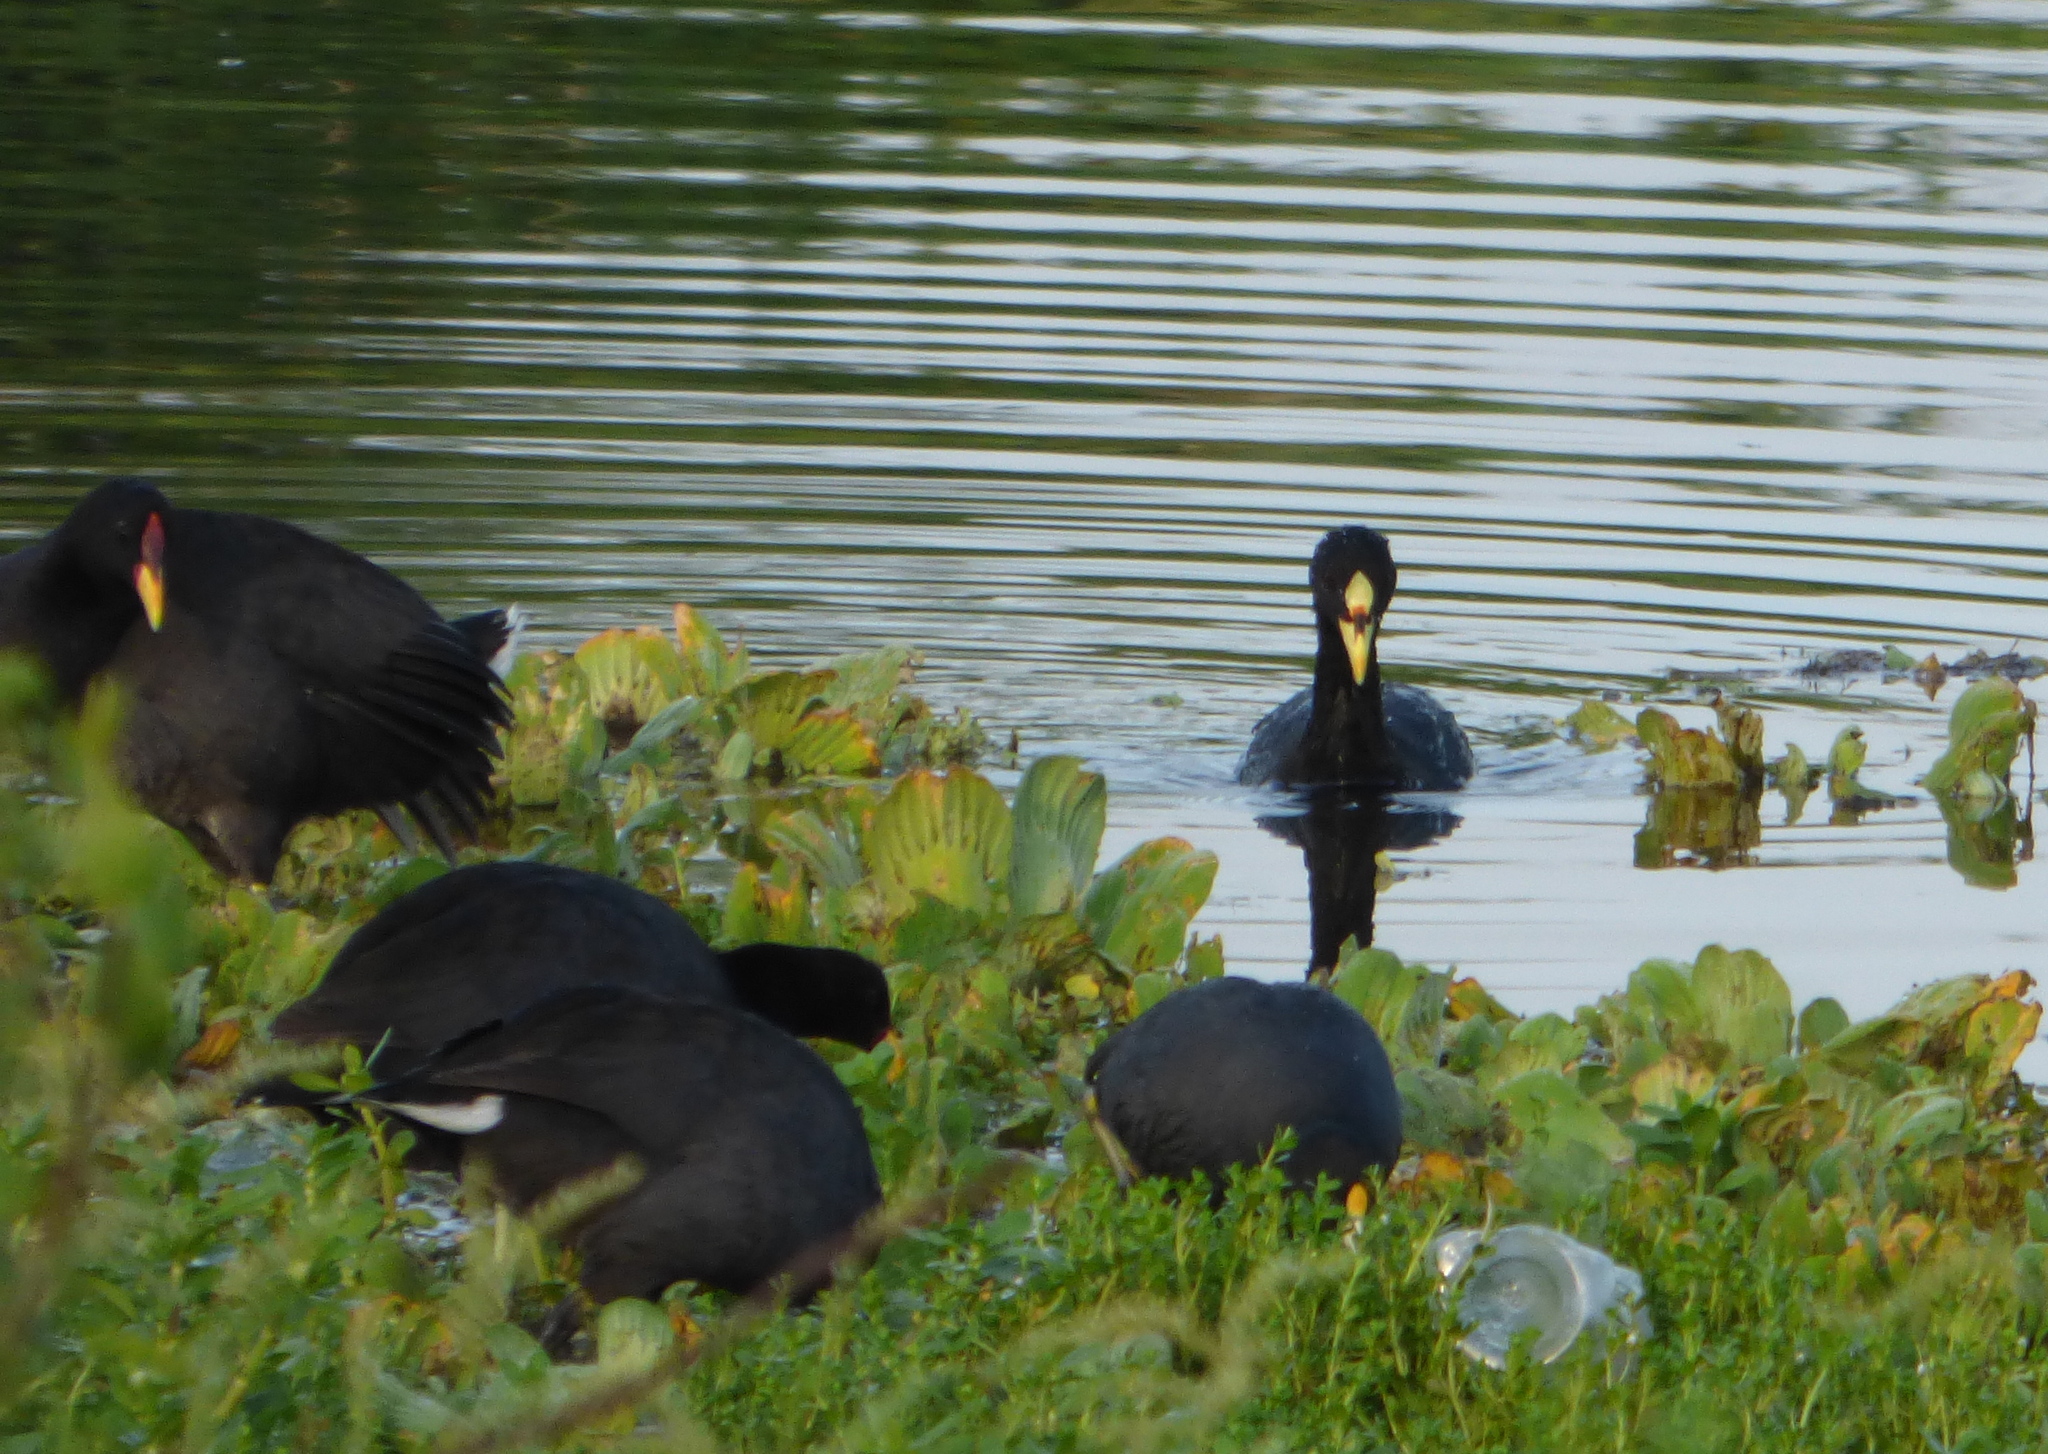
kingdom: Animalia
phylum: Chordata
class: Aves
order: Gruiformes
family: Rallidae
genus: Fulica
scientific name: Fulica armillata
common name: Red-gartered coot
